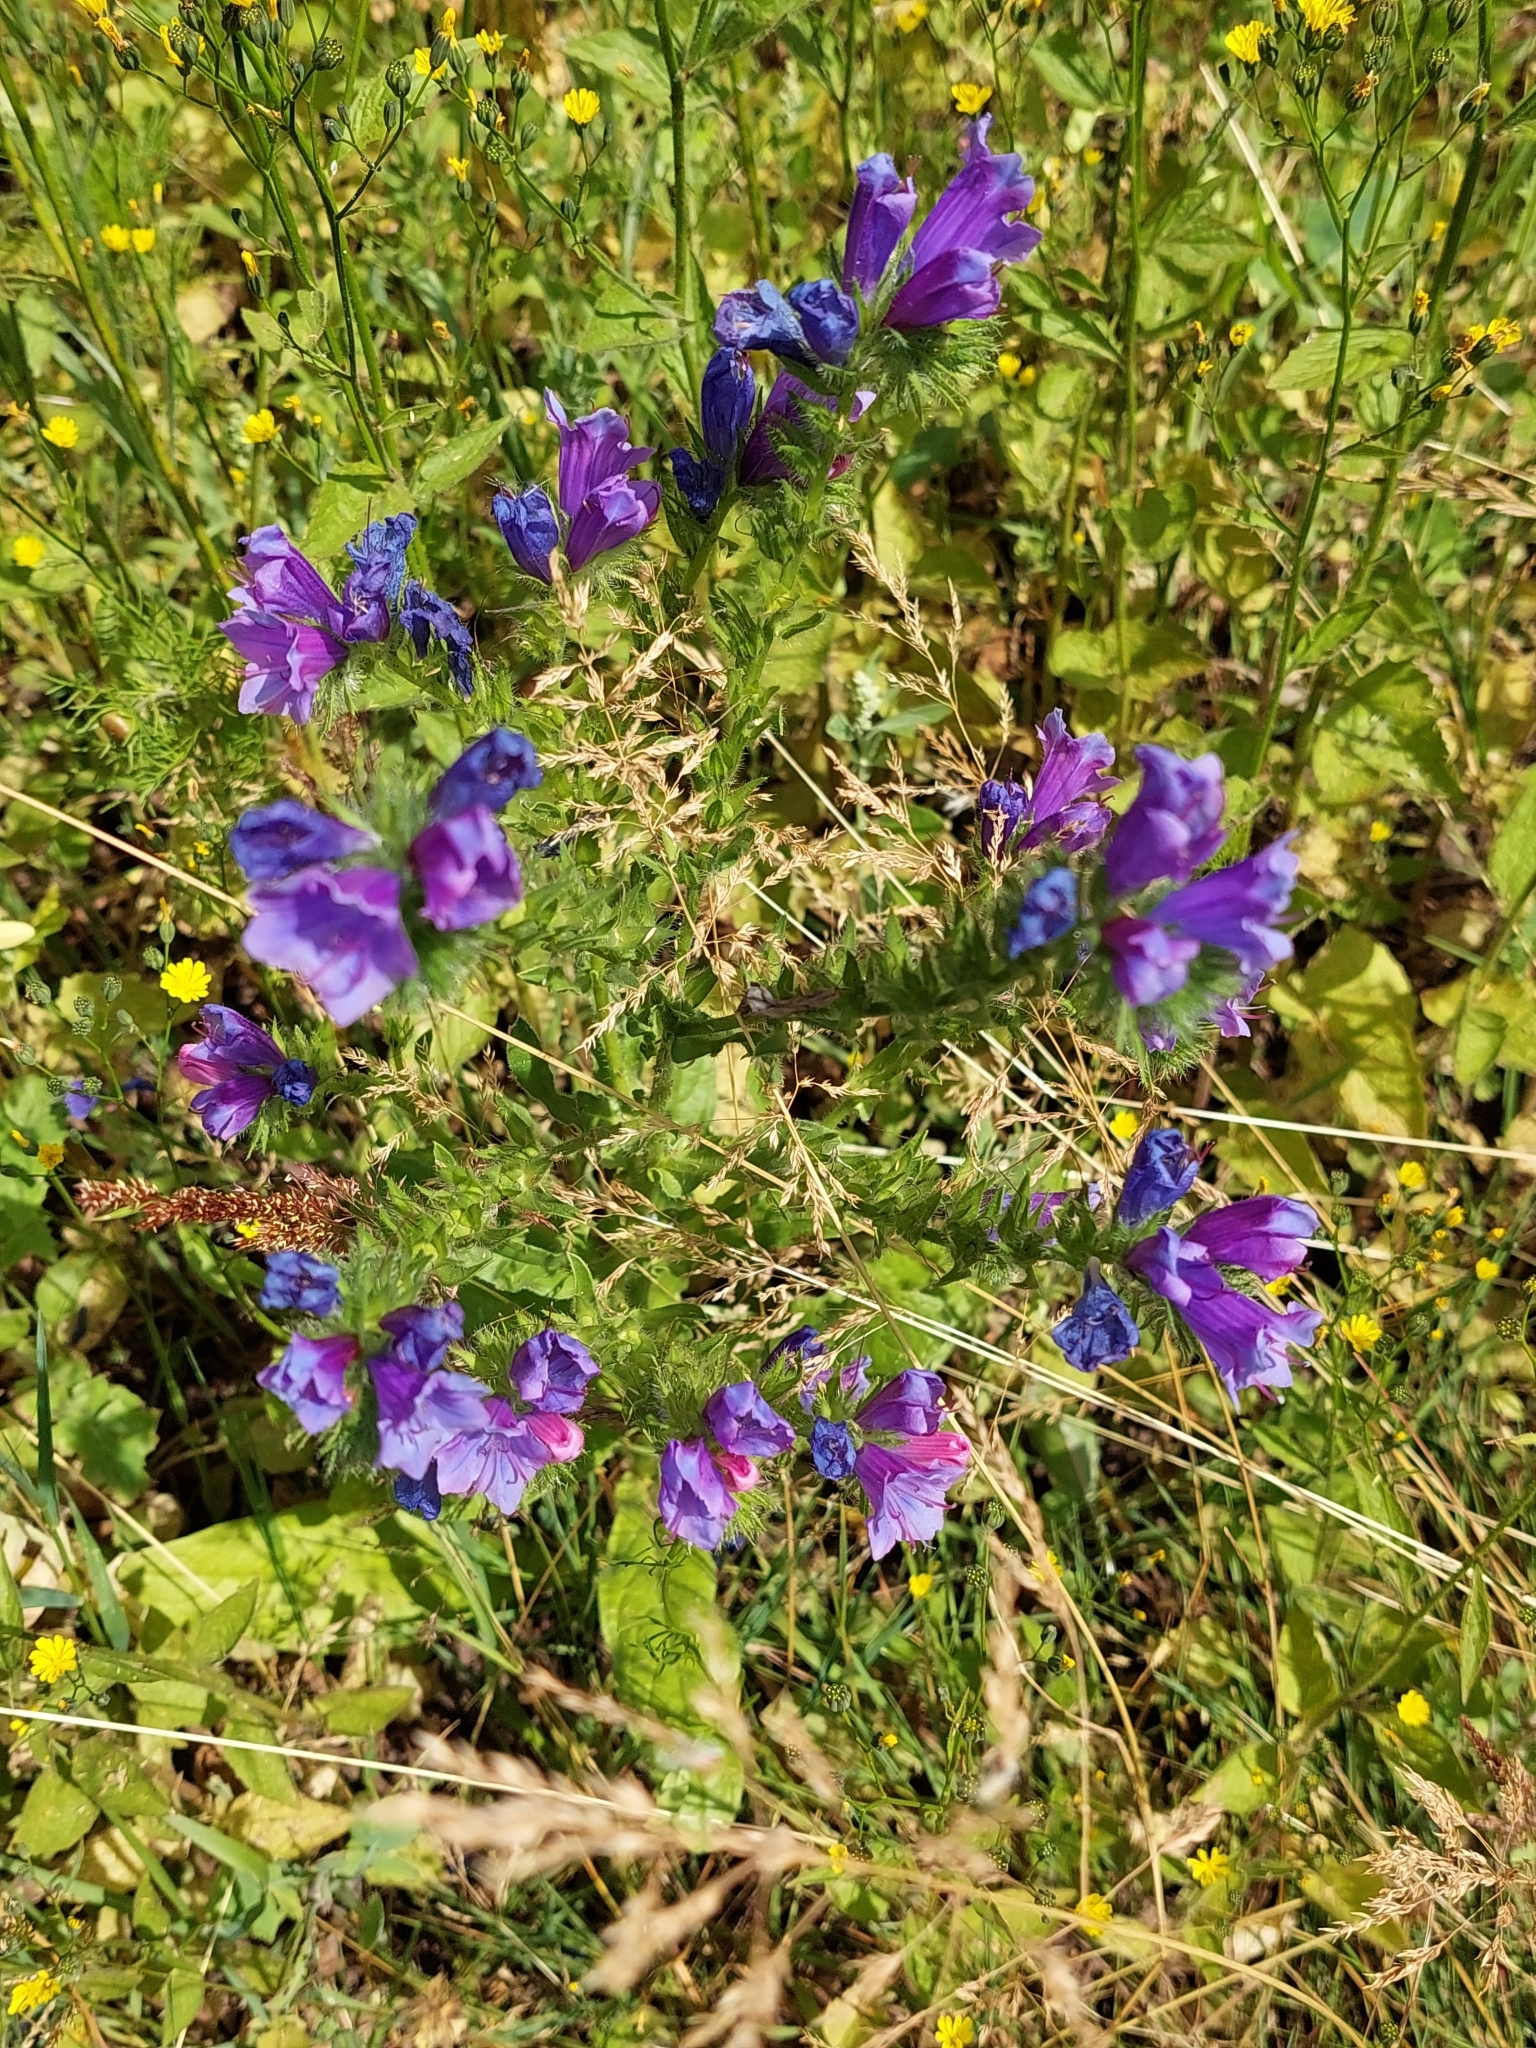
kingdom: Plantae
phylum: Tracheophyta
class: Magnoliopsida
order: Boraginales
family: Boraginaceae
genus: Echium
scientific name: Echium vulgare
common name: Common viper's bugloss
